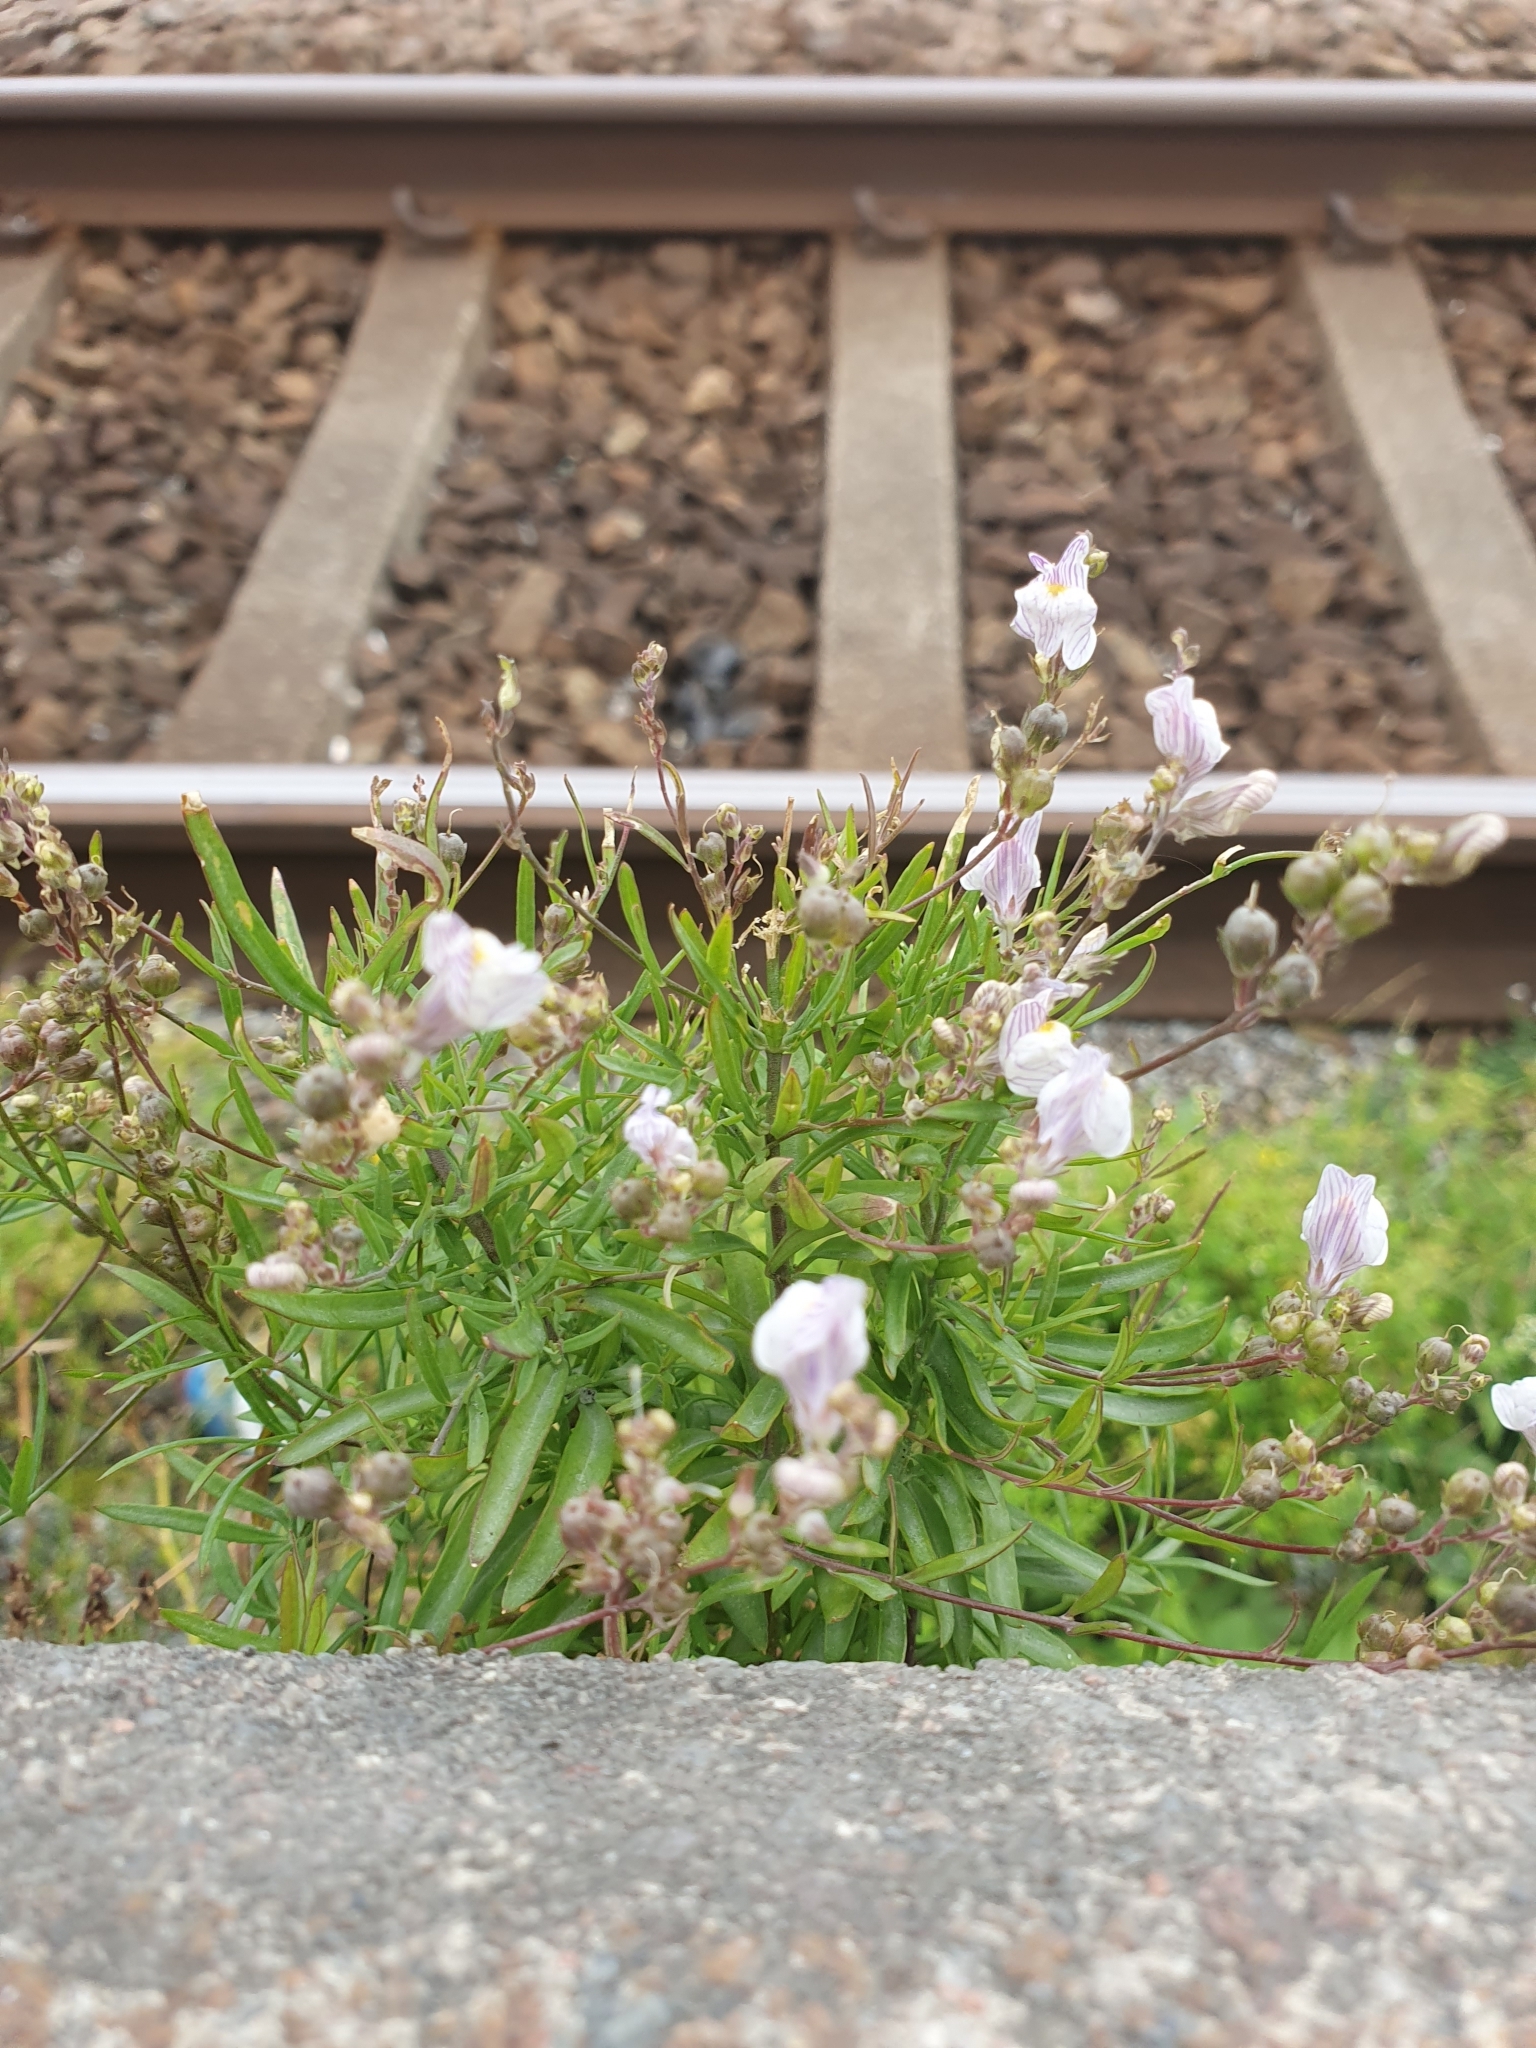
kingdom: Plantae
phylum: Tracheophyta
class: Magnoliopsida
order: Lamiales
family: Plantaginaceae
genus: Linaria
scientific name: Linaria repens
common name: Pale toadflax
